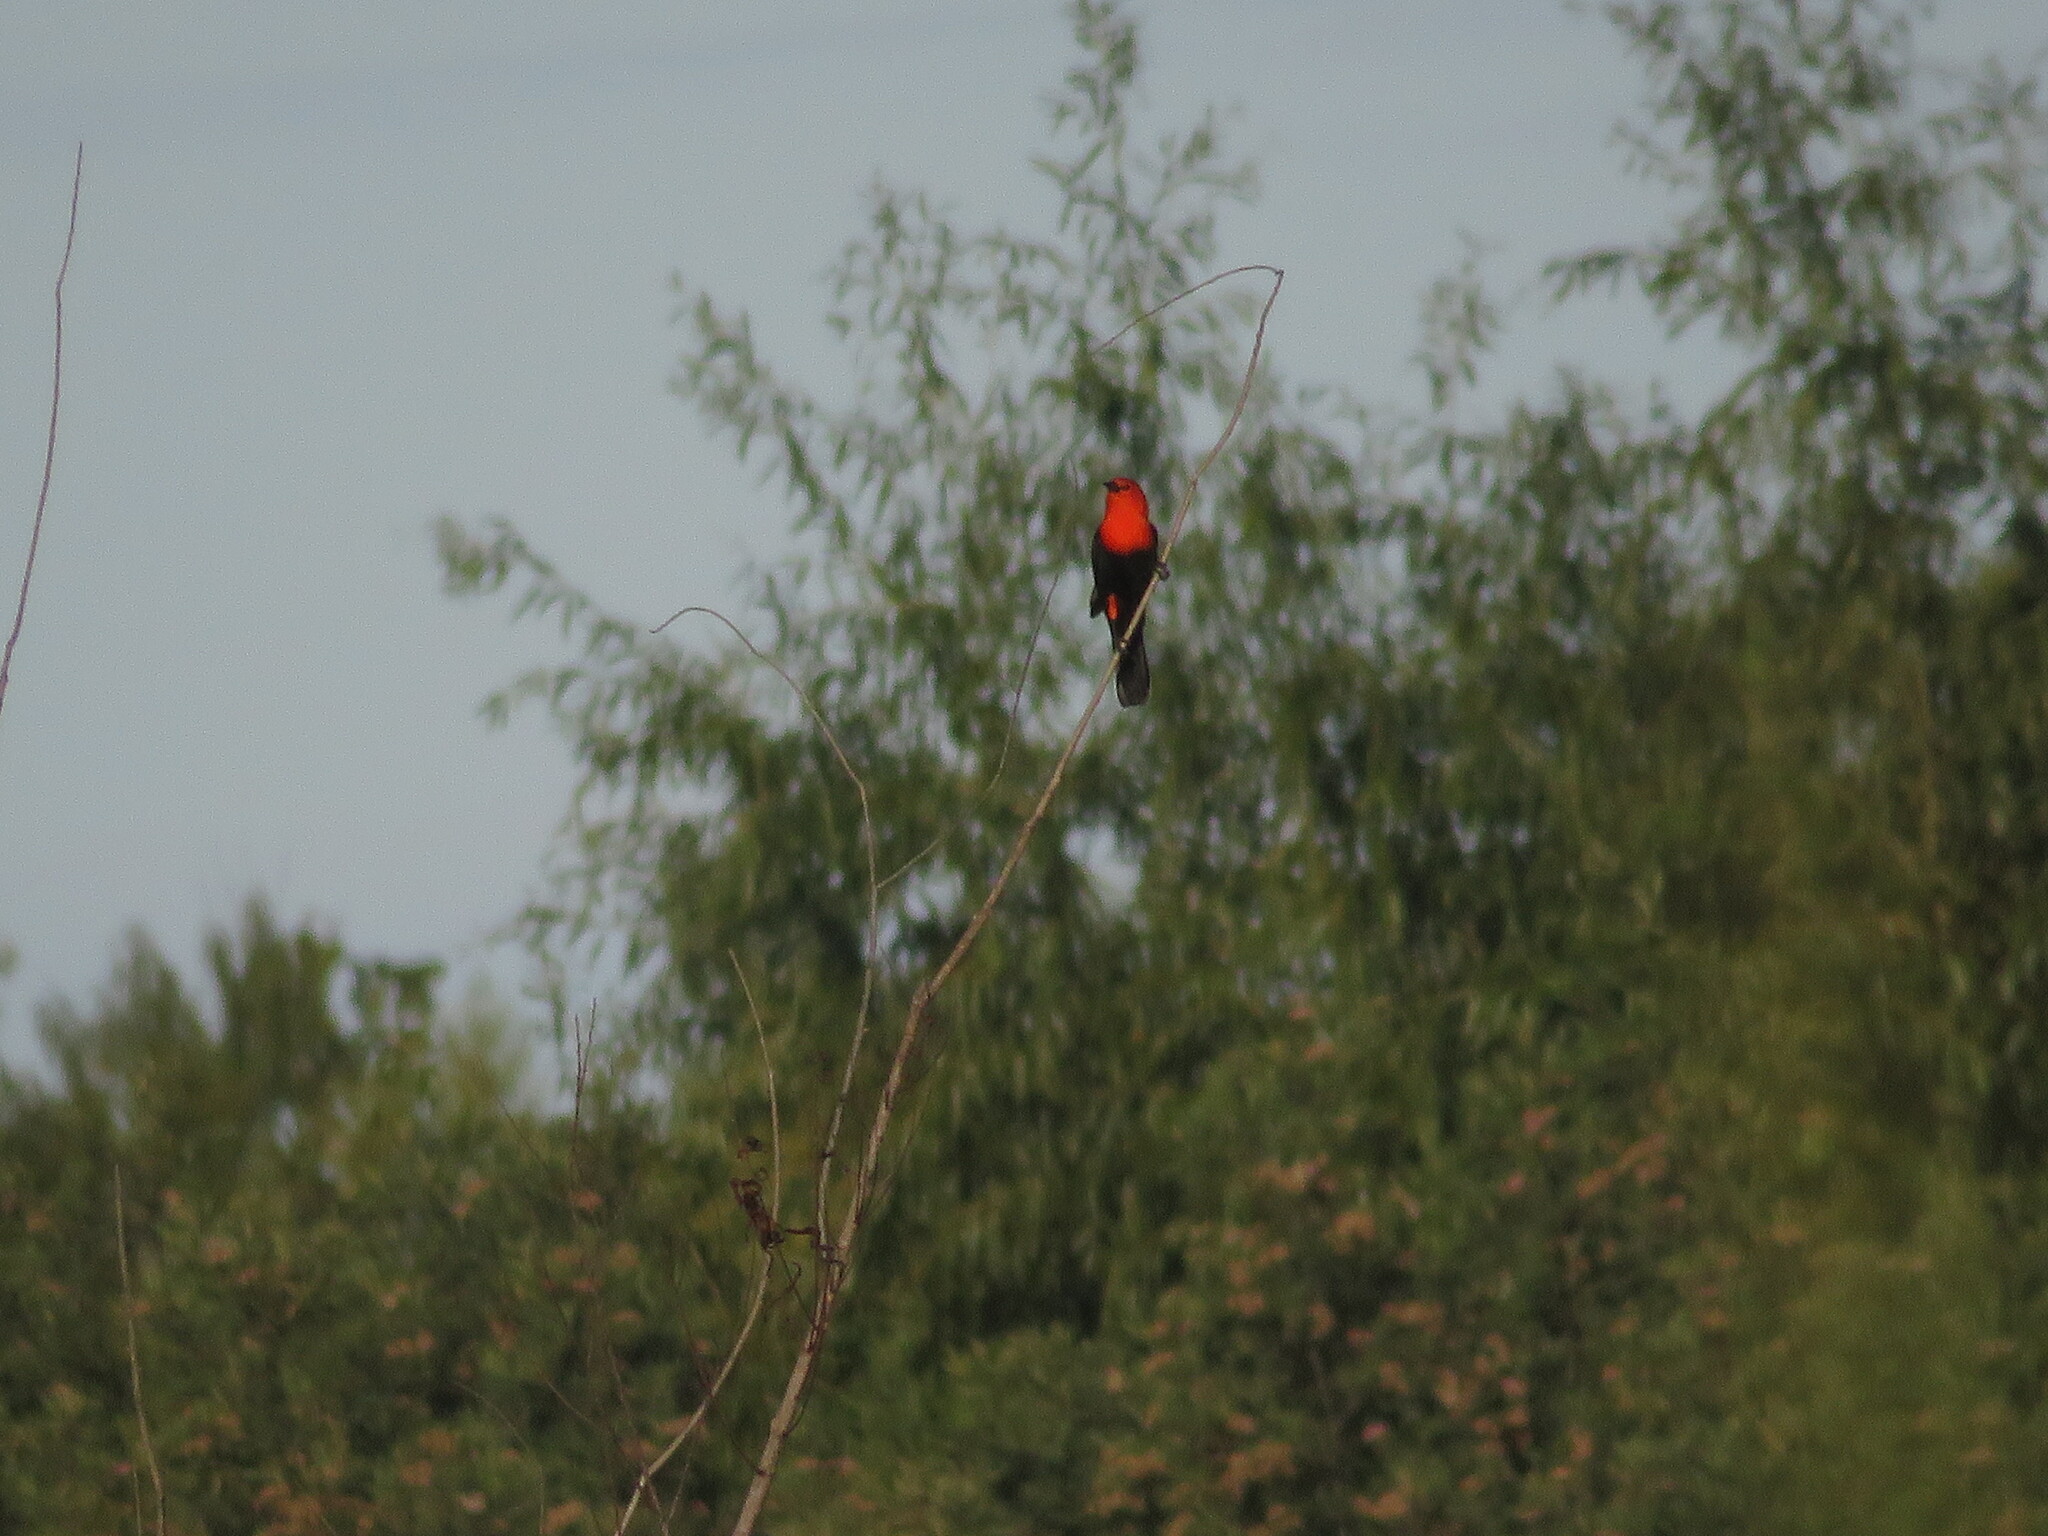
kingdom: Animalia
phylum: Chordata
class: Aves
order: Passeriformes
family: Icteridae
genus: Amblyramphus
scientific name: Amblyramphus holosericeus
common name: Scarlet-headed blackbird
